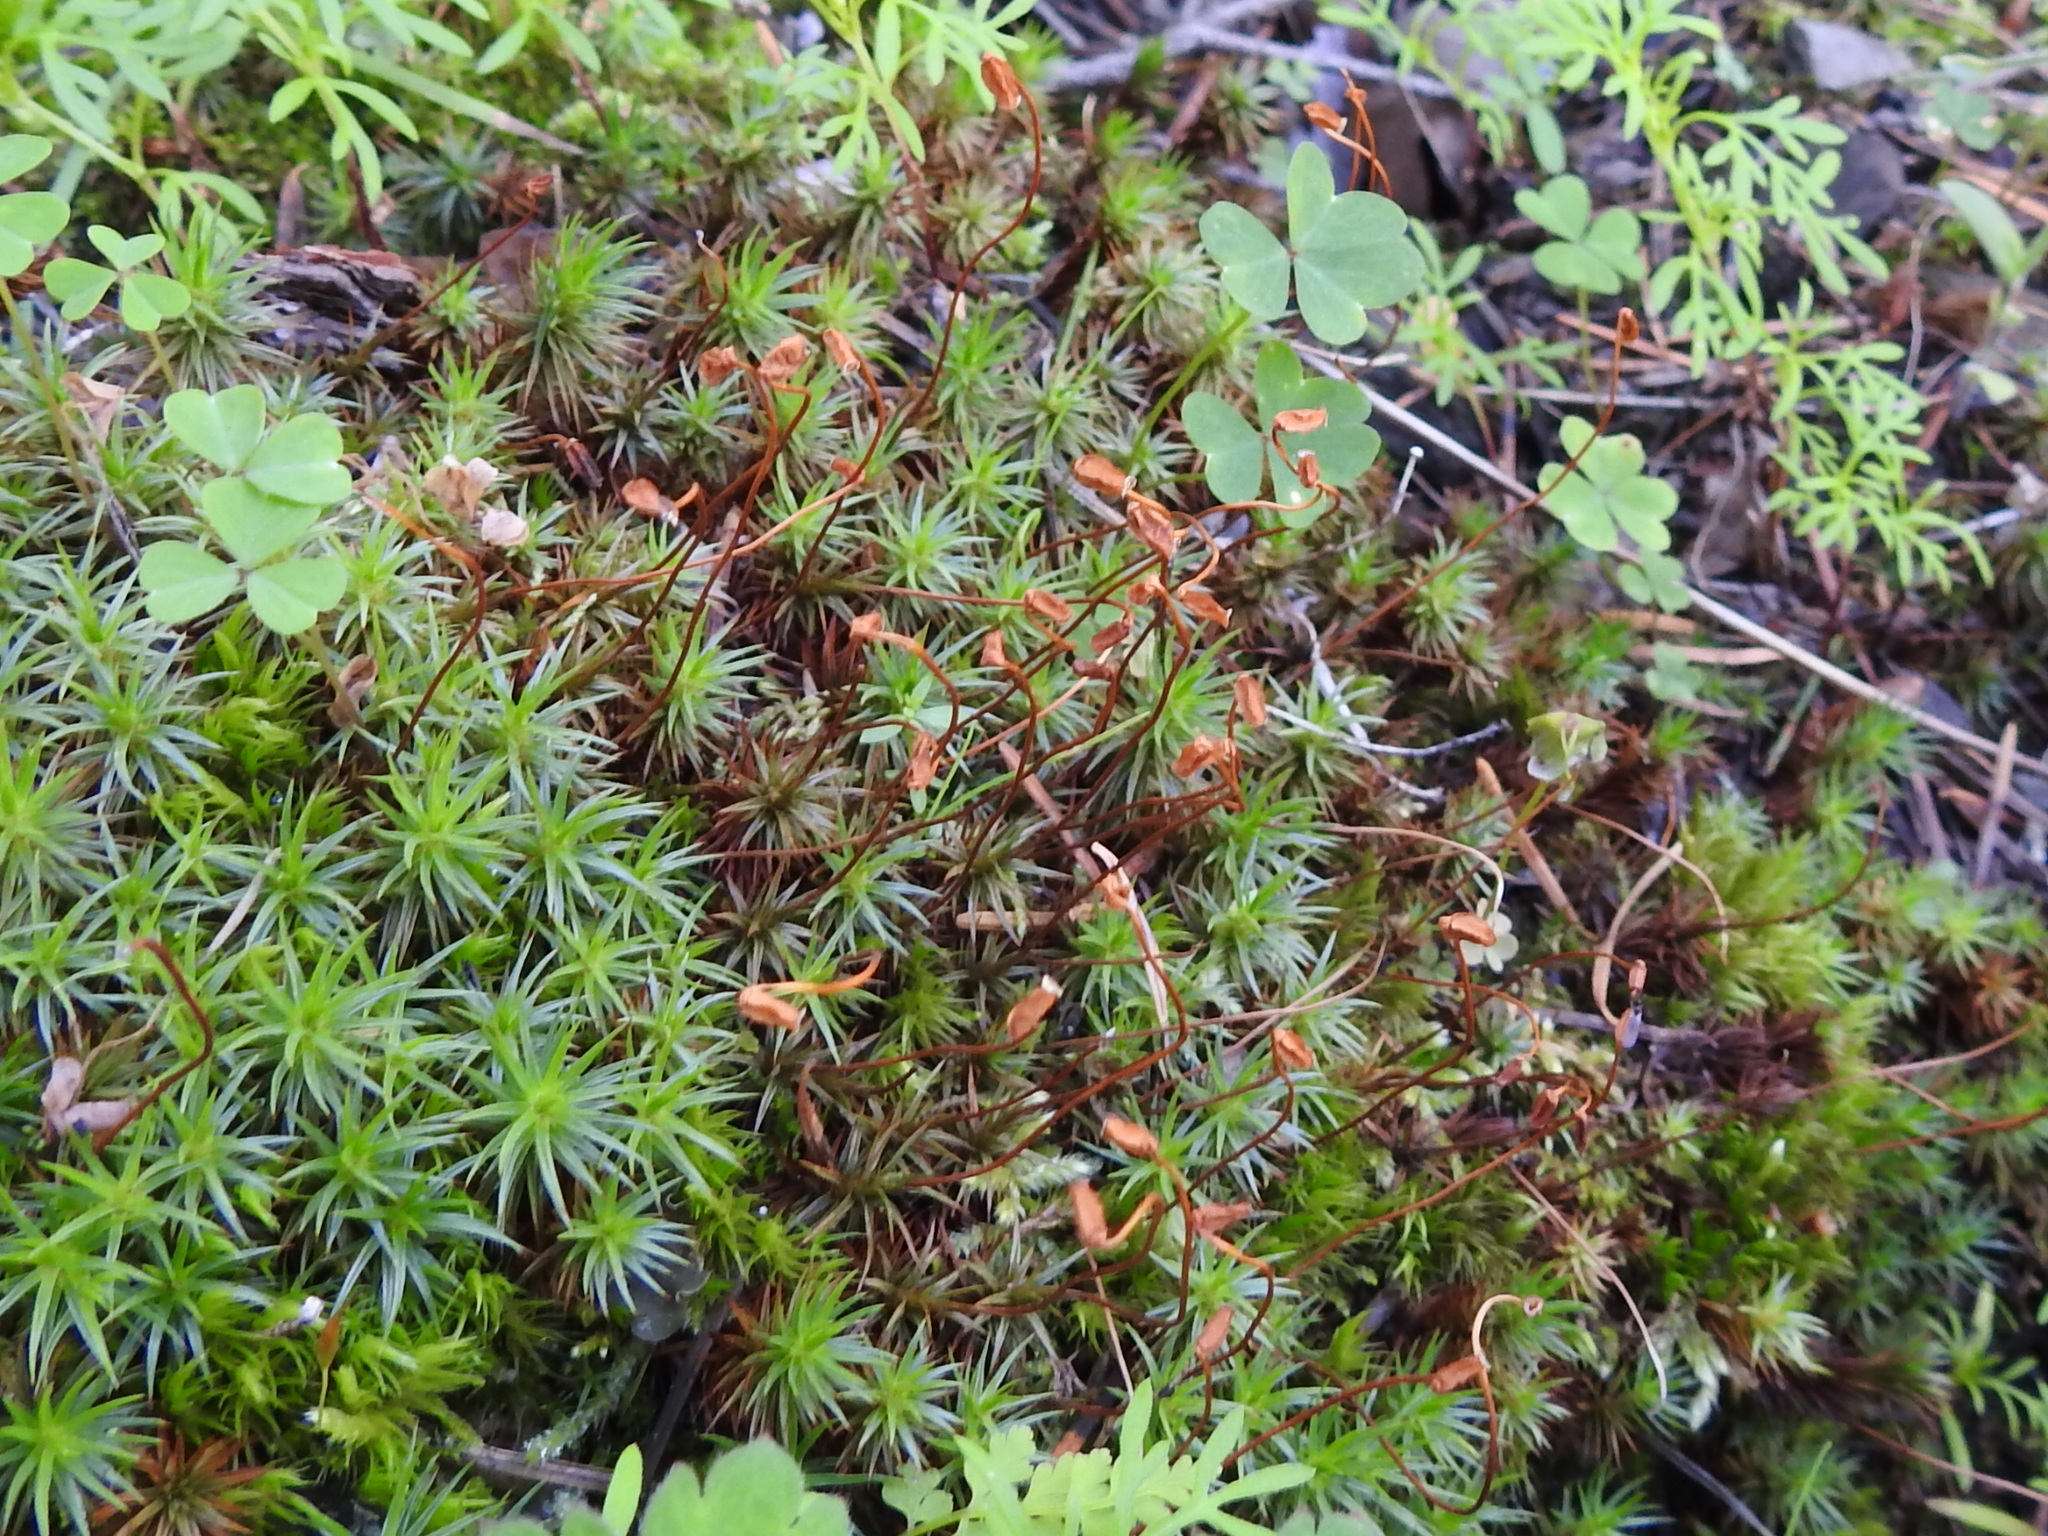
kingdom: Plantae
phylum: Bryophyta
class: Polytrichopsida
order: Polytrichales
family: Polytrichaceae
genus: Polytrichum
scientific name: Polytrichum juniperinum
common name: Juniper haircap moss
